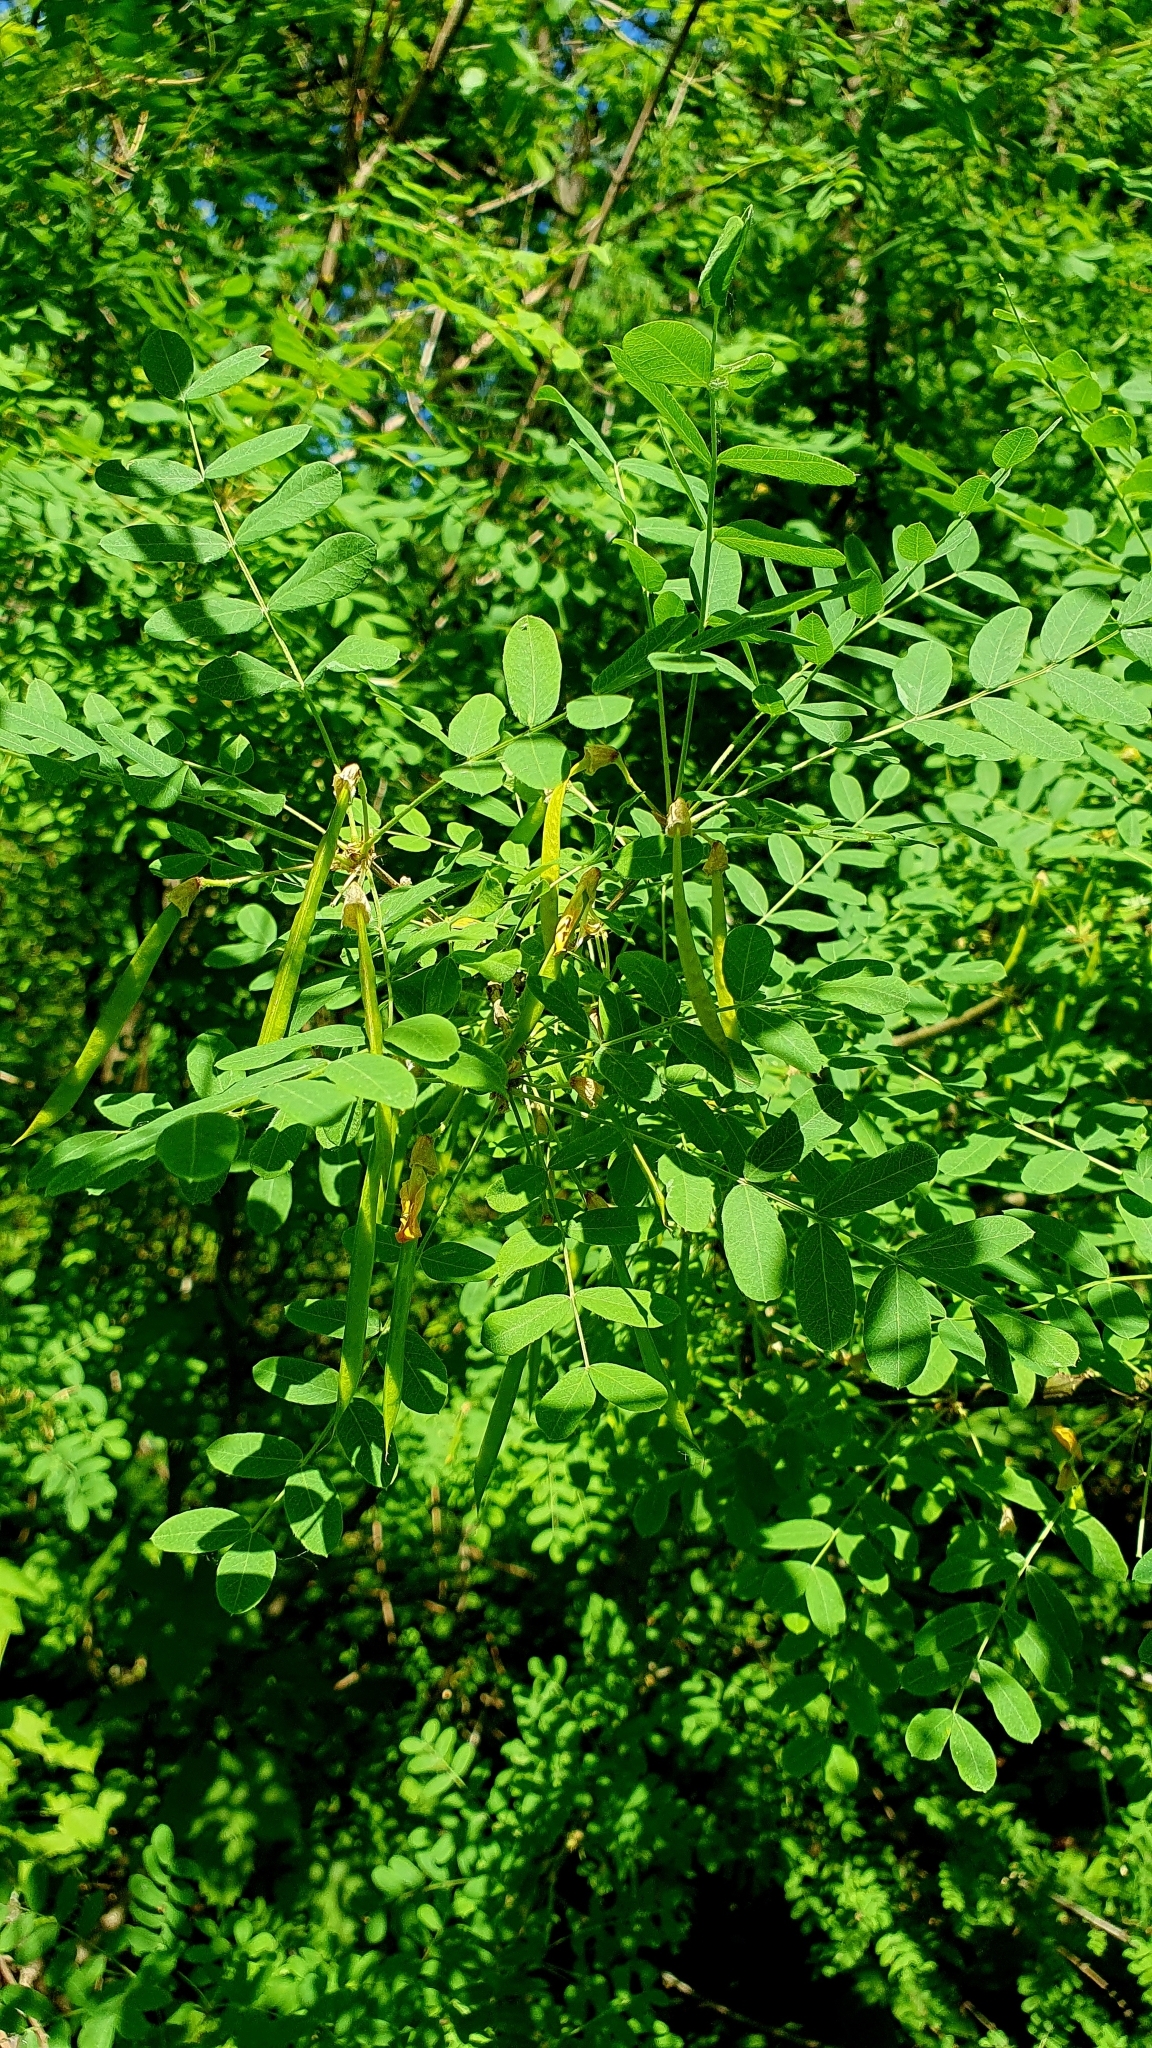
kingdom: Plantae
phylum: Tracheophyta
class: Magnoliopsida
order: Fabales
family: Fabaceae
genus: Caragana
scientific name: Caragana arborescens
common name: Siberian peashrub
